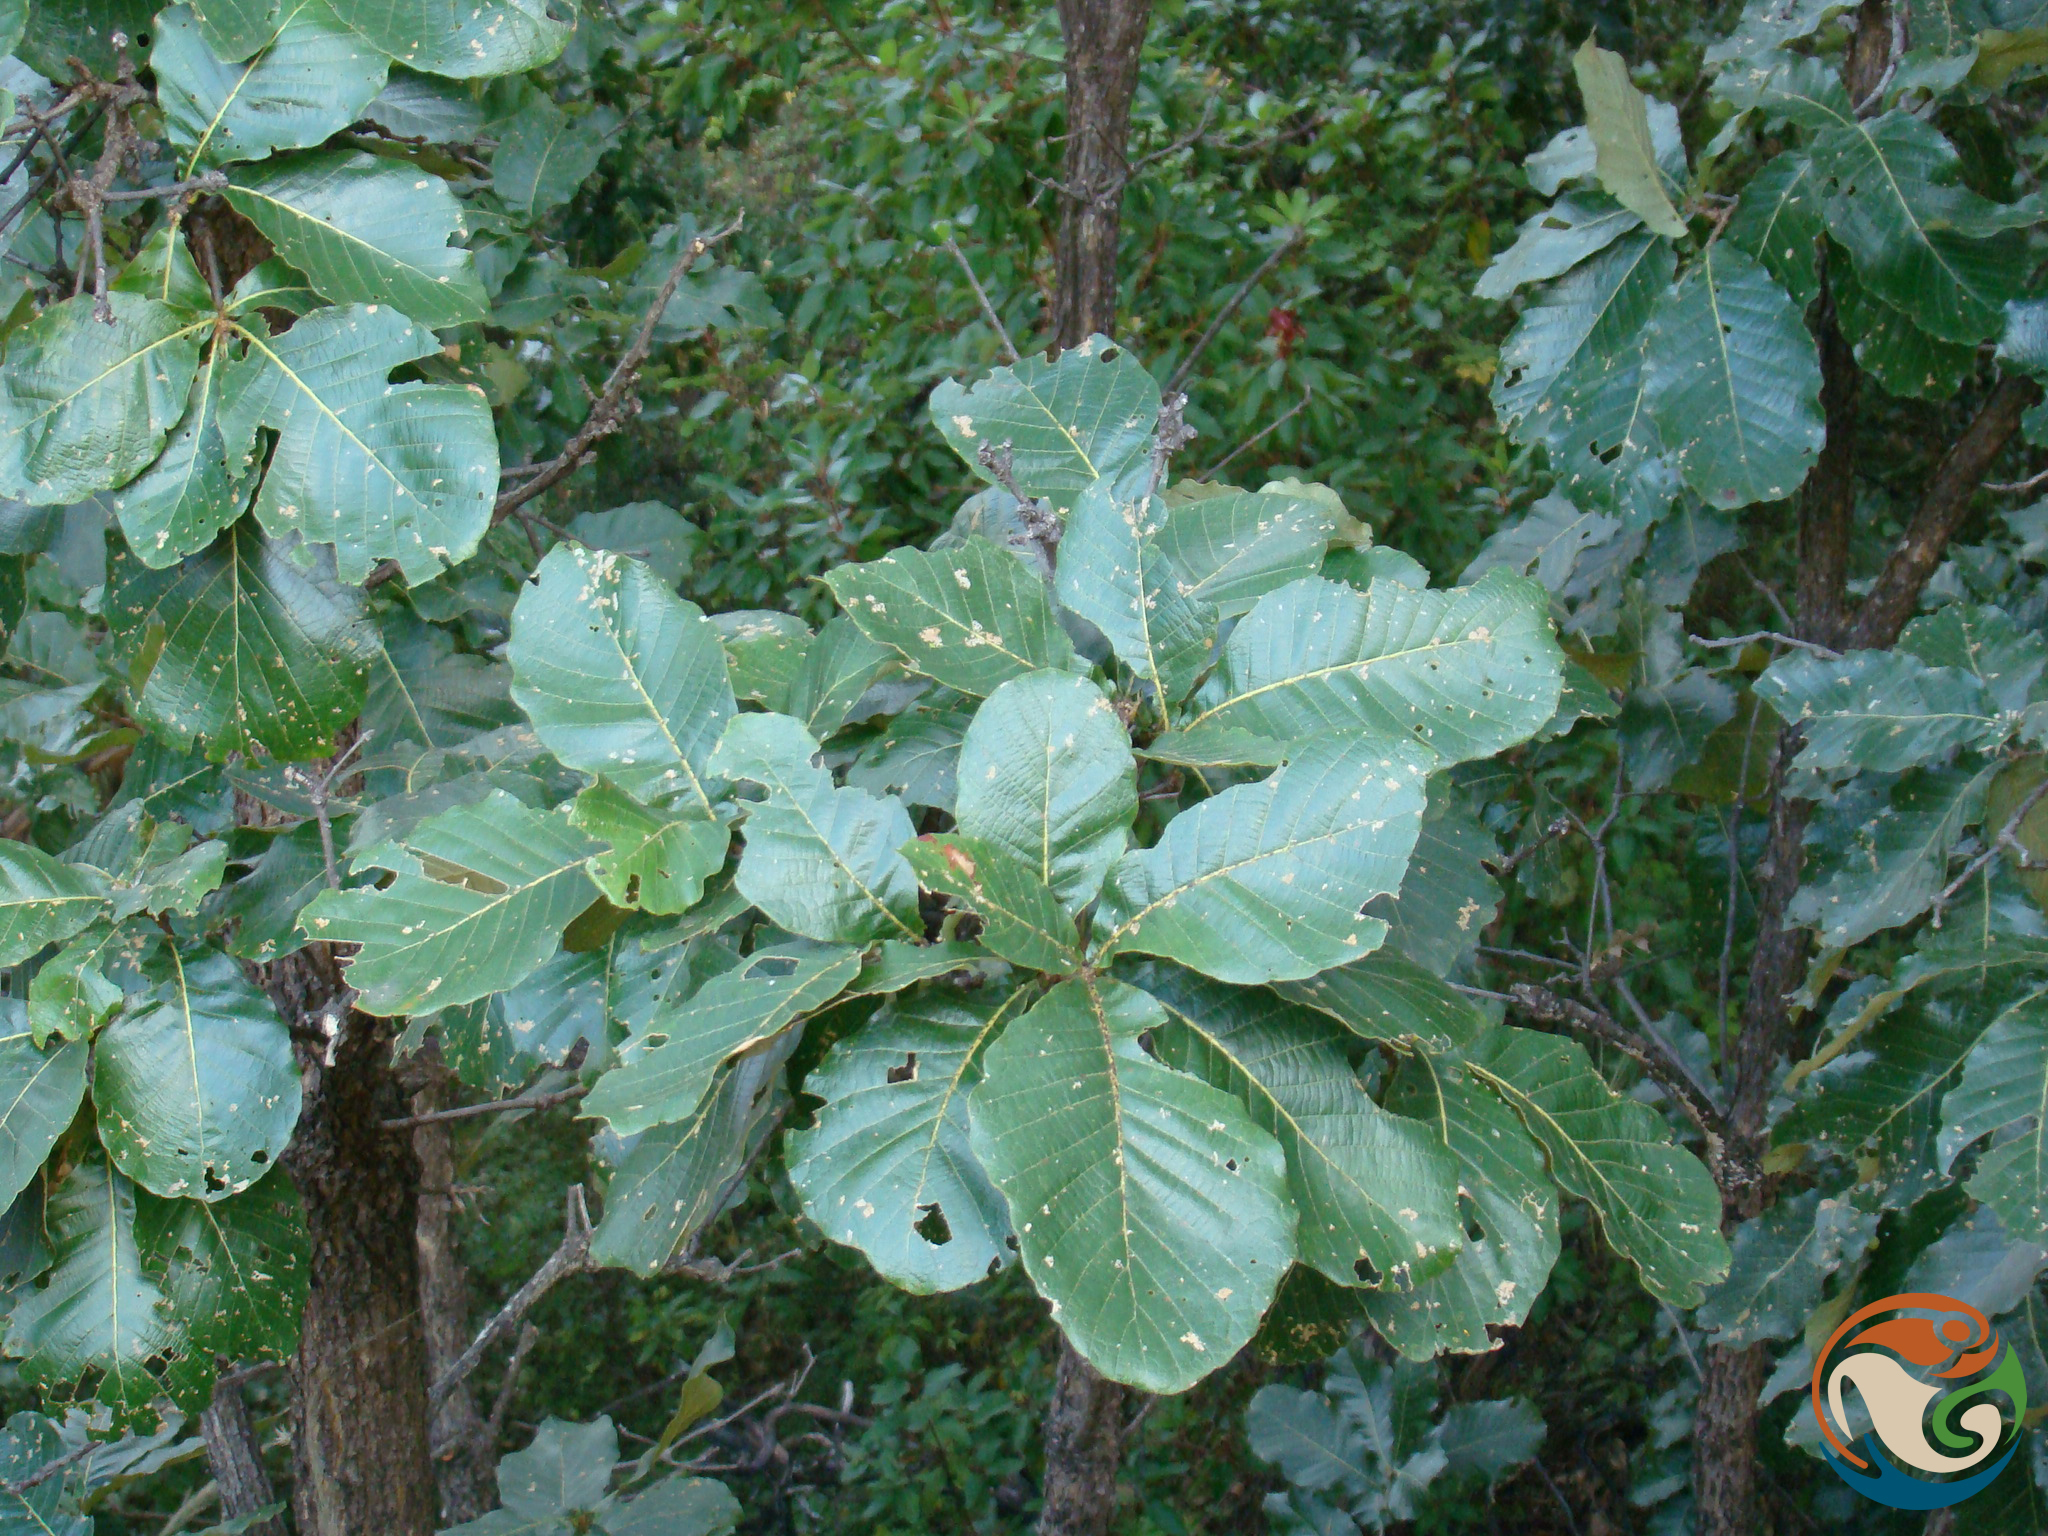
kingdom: Plantae
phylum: Tracheophyta
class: Magnoliopsida
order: Fagales
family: Fagaceae
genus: Quercus
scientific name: Quercus magnoliifolia
